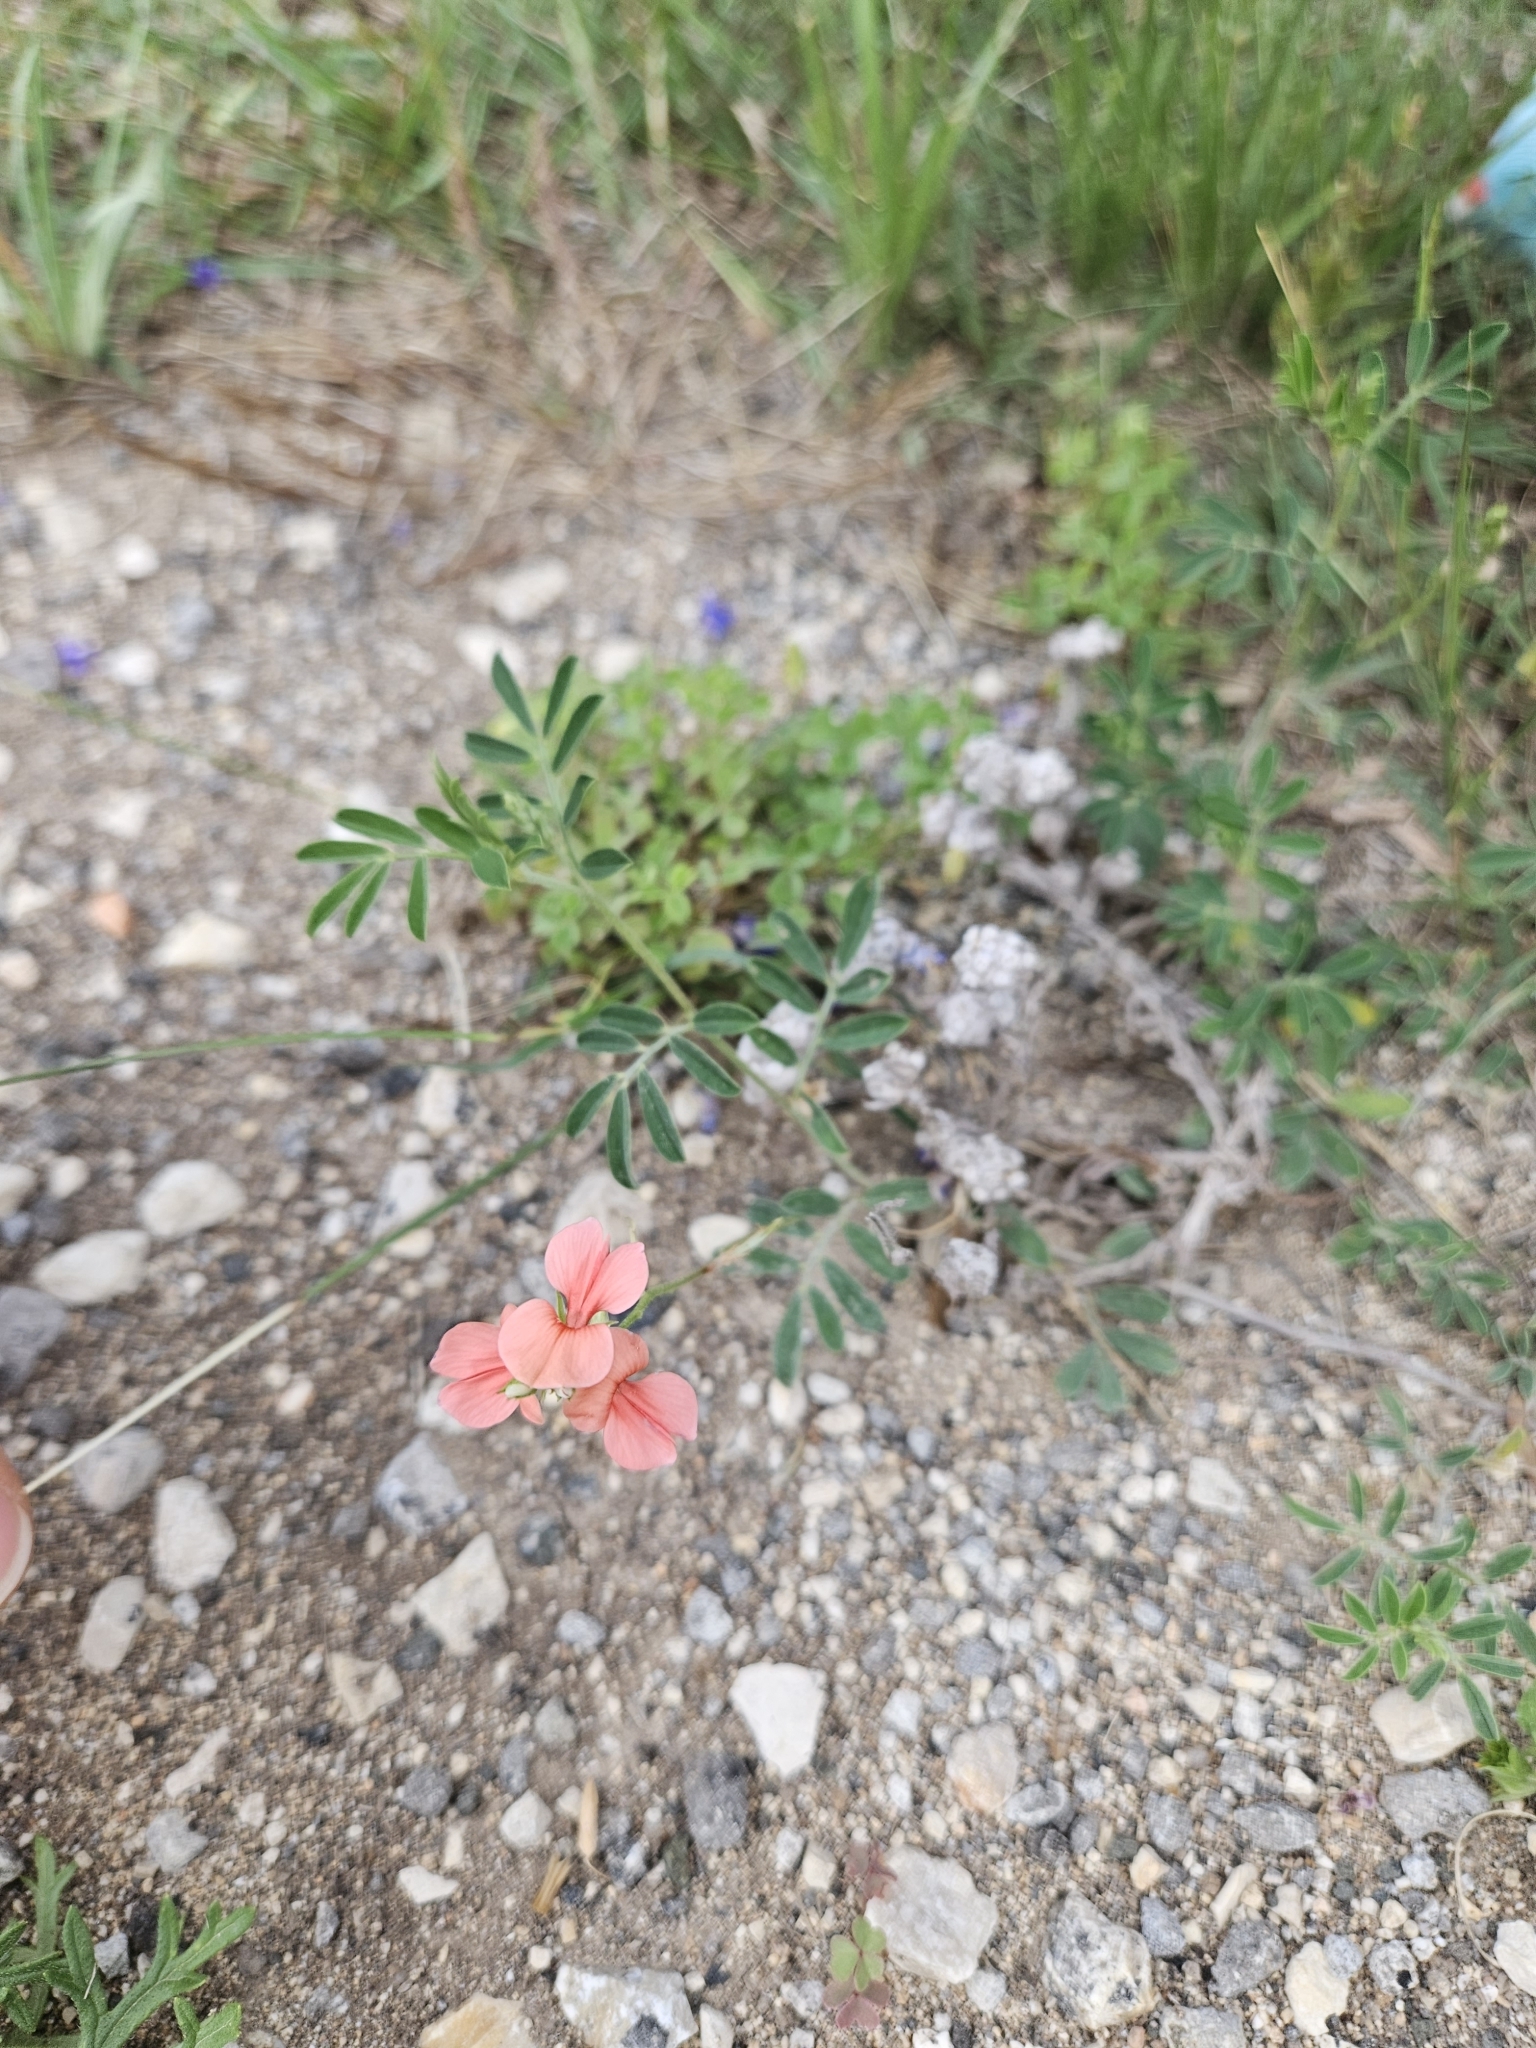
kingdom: Plantae
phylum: Tracheophyta
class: Magnoliopsida
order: Fabales
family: Fabaceae
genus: Indigofera
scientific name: Indigofera miniata
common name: Coast indigo
